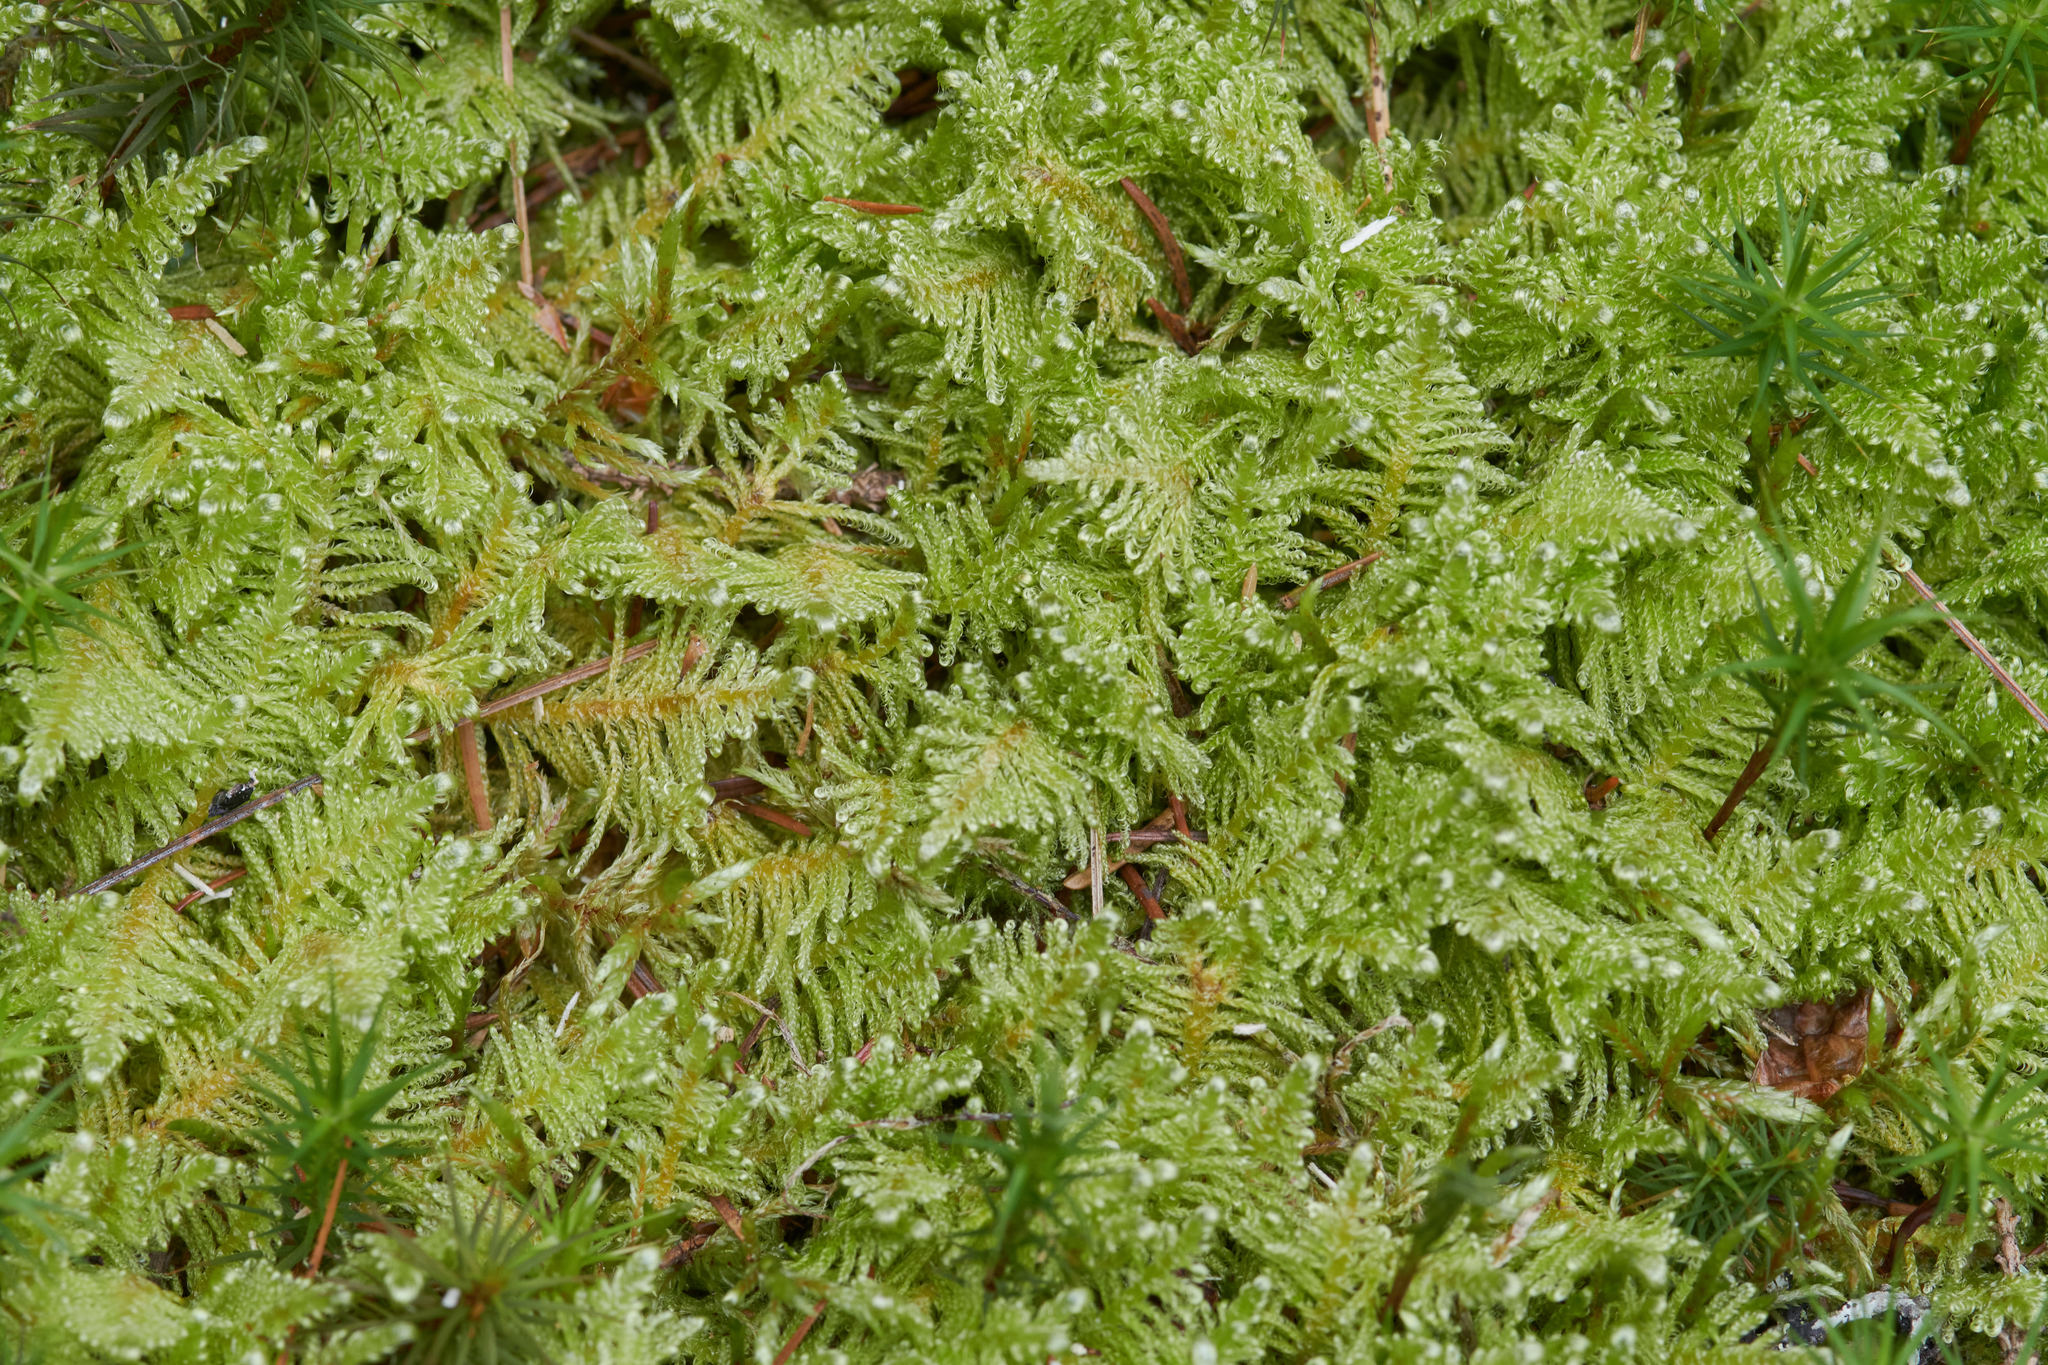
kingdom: Plantae
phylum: Bryophyta
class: Bryopsida
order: Hypnales
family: Pylaisiaceae
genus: Ptilium
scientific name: Ptilium crista-castrensis
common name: Knight's plume moss
